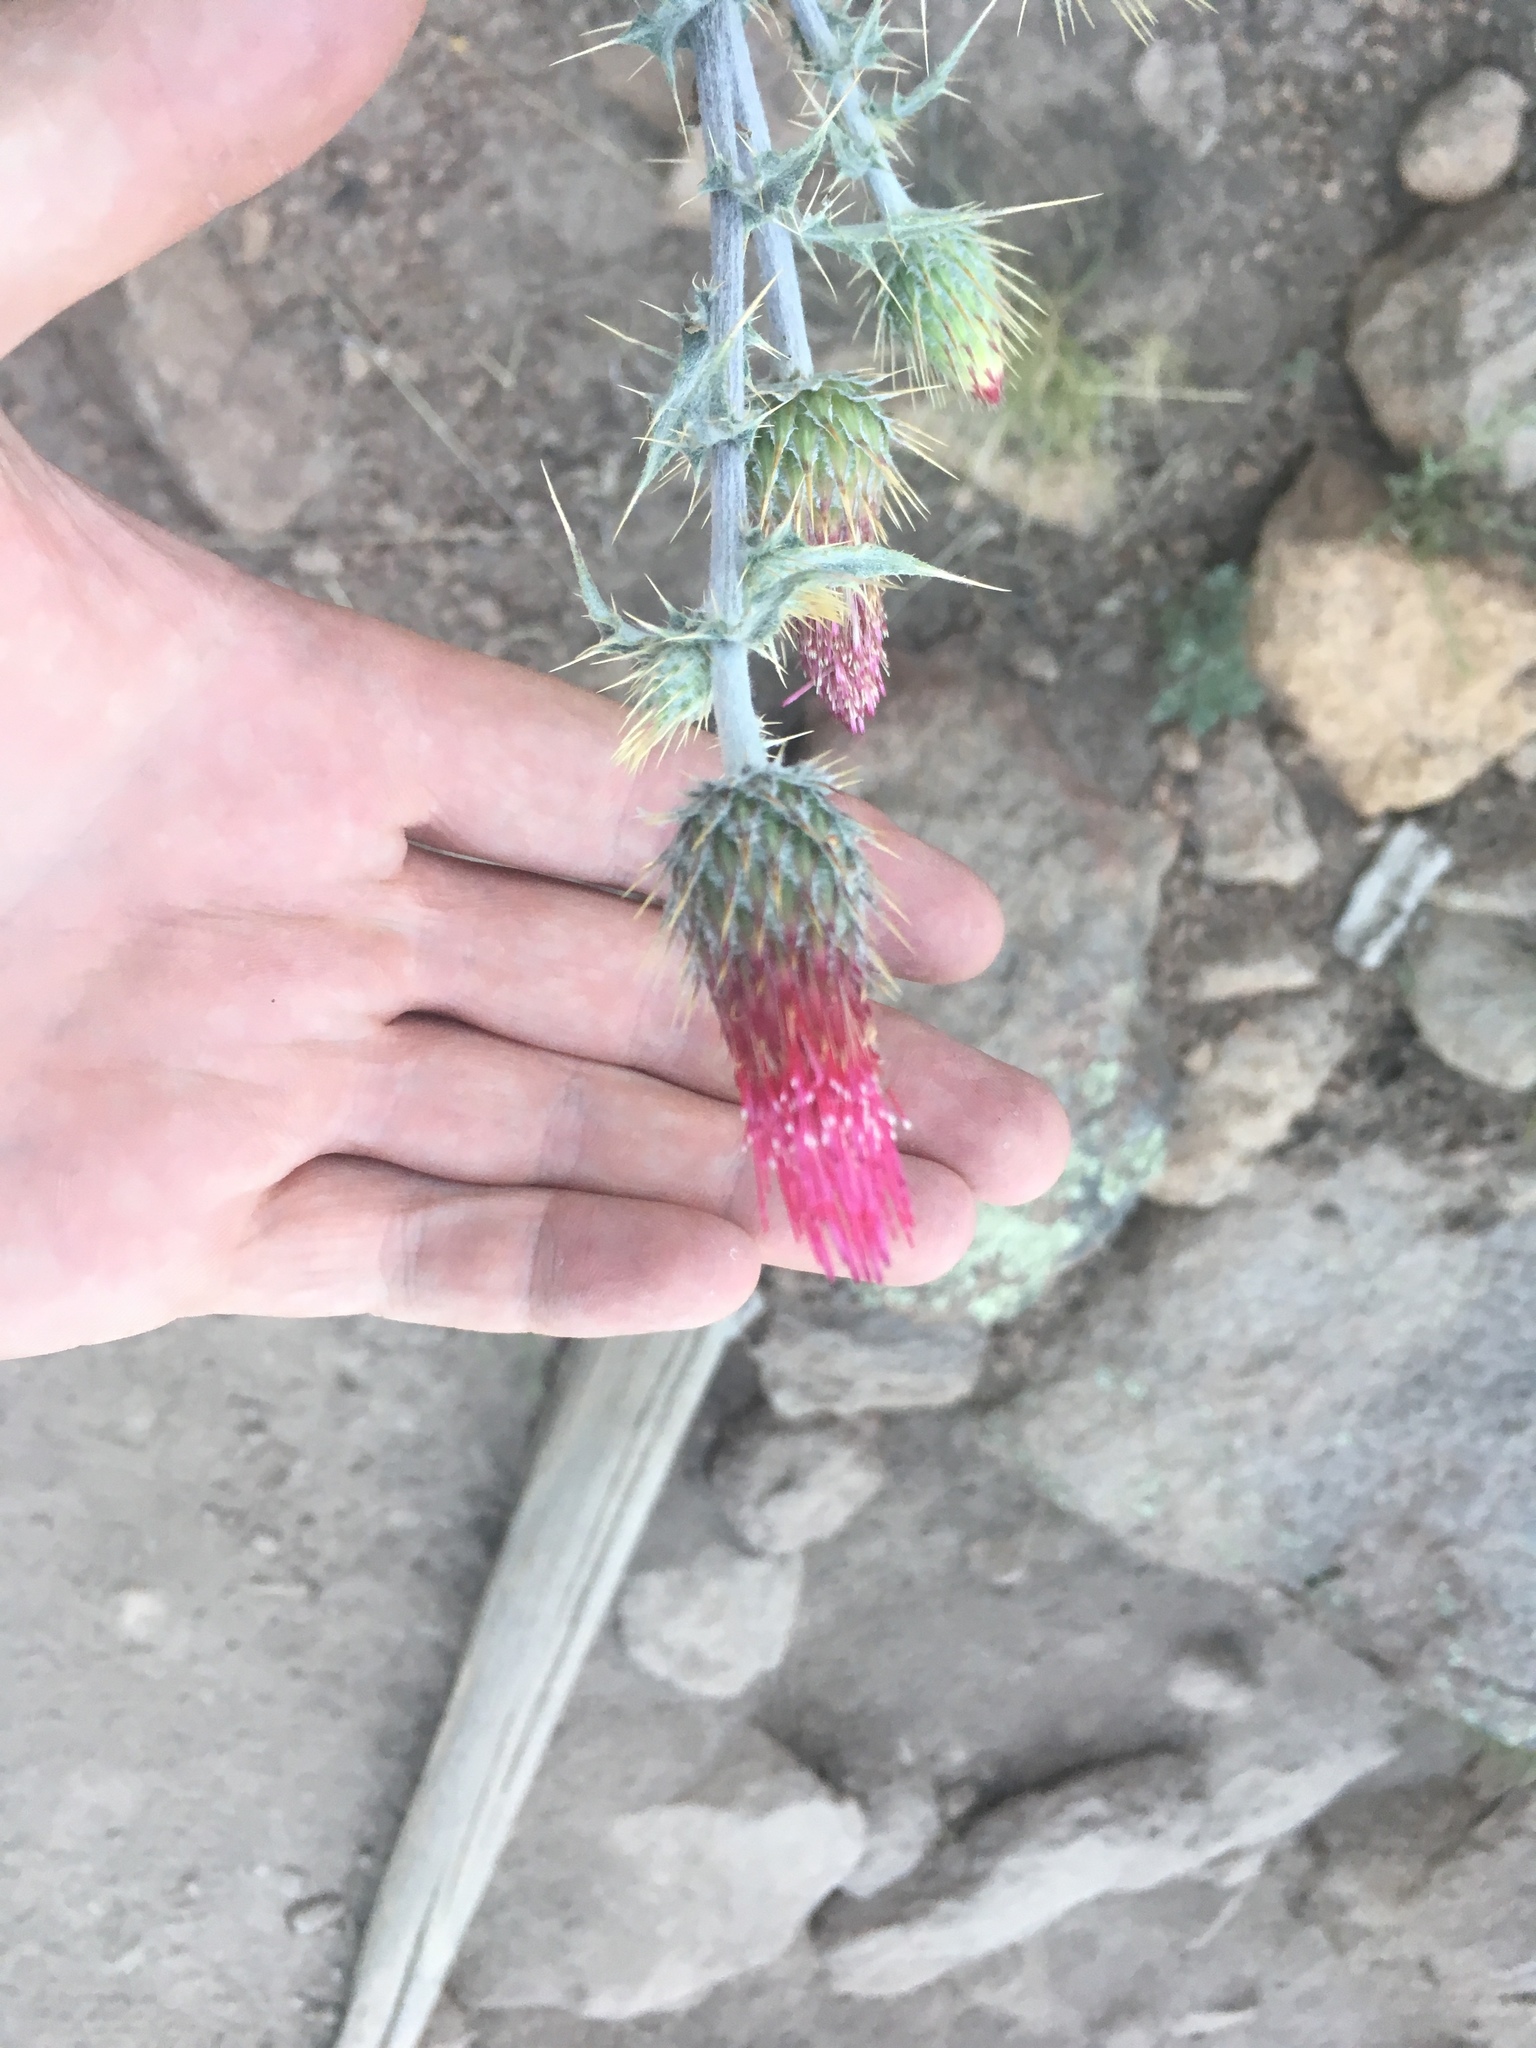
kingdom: Plantae
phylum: Tracheophyta
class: Magnoliopsida
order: Asterales
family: Asteraceae
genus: Cirsium
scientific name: Cirsium arizonicum
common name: Arizona thistle
